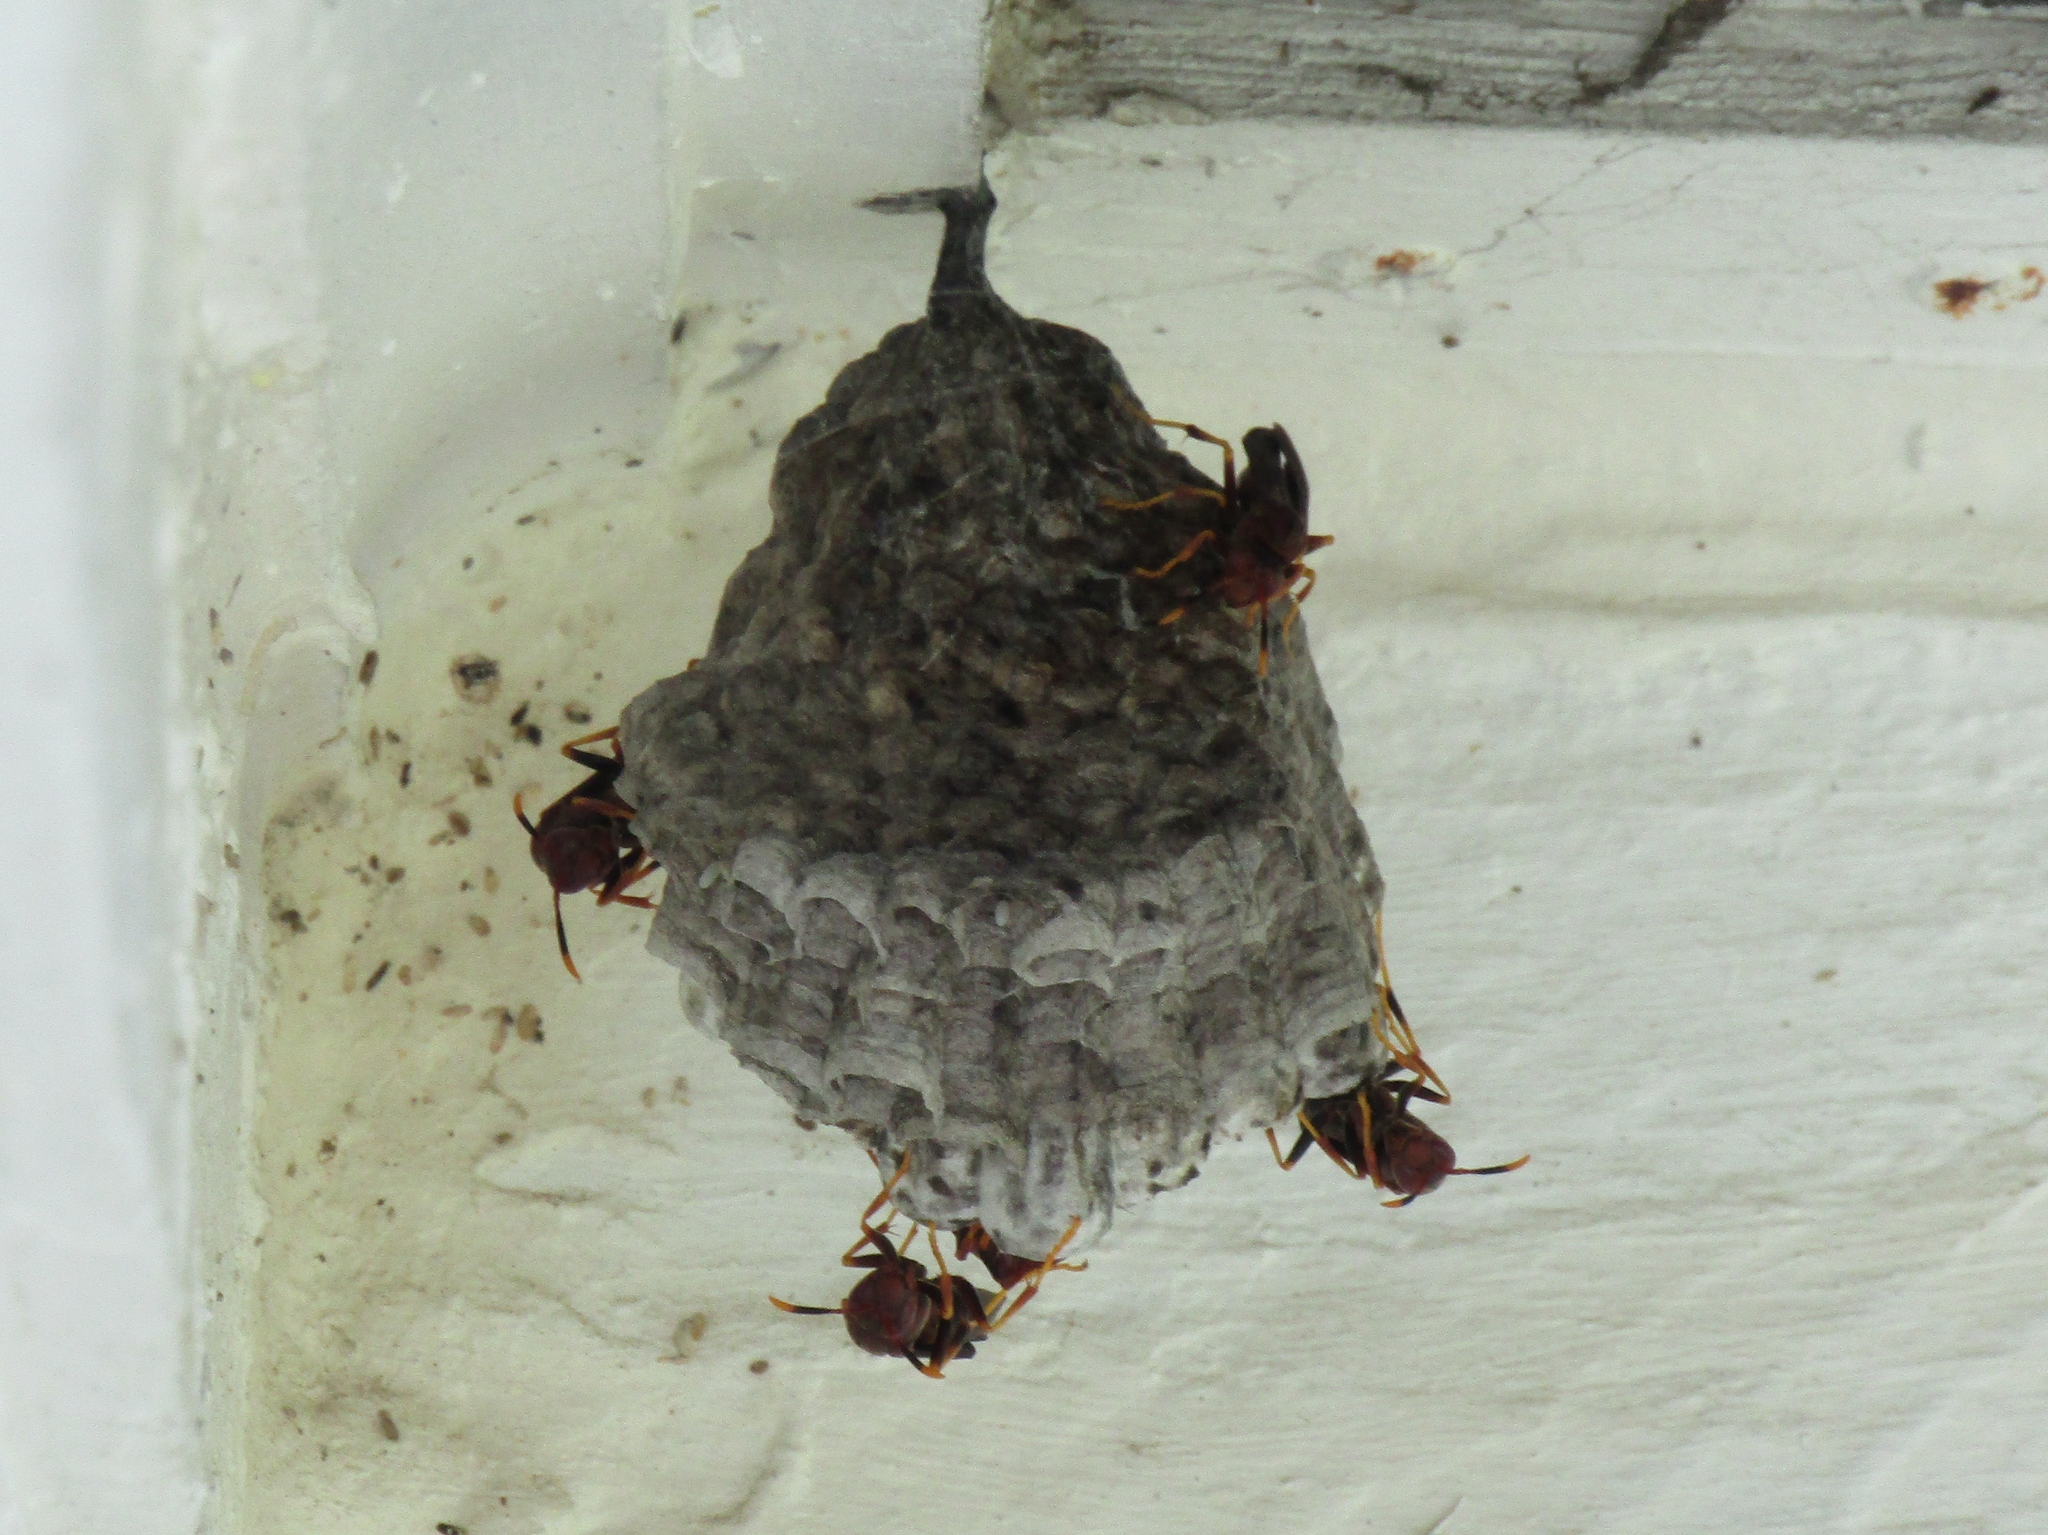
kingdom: Animalia
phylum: Arthropoda
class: Insecta
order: Hymenoptera
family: Eumenidae
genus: Polistes
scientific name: Polistes annularis
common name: Ringed paper wasp
